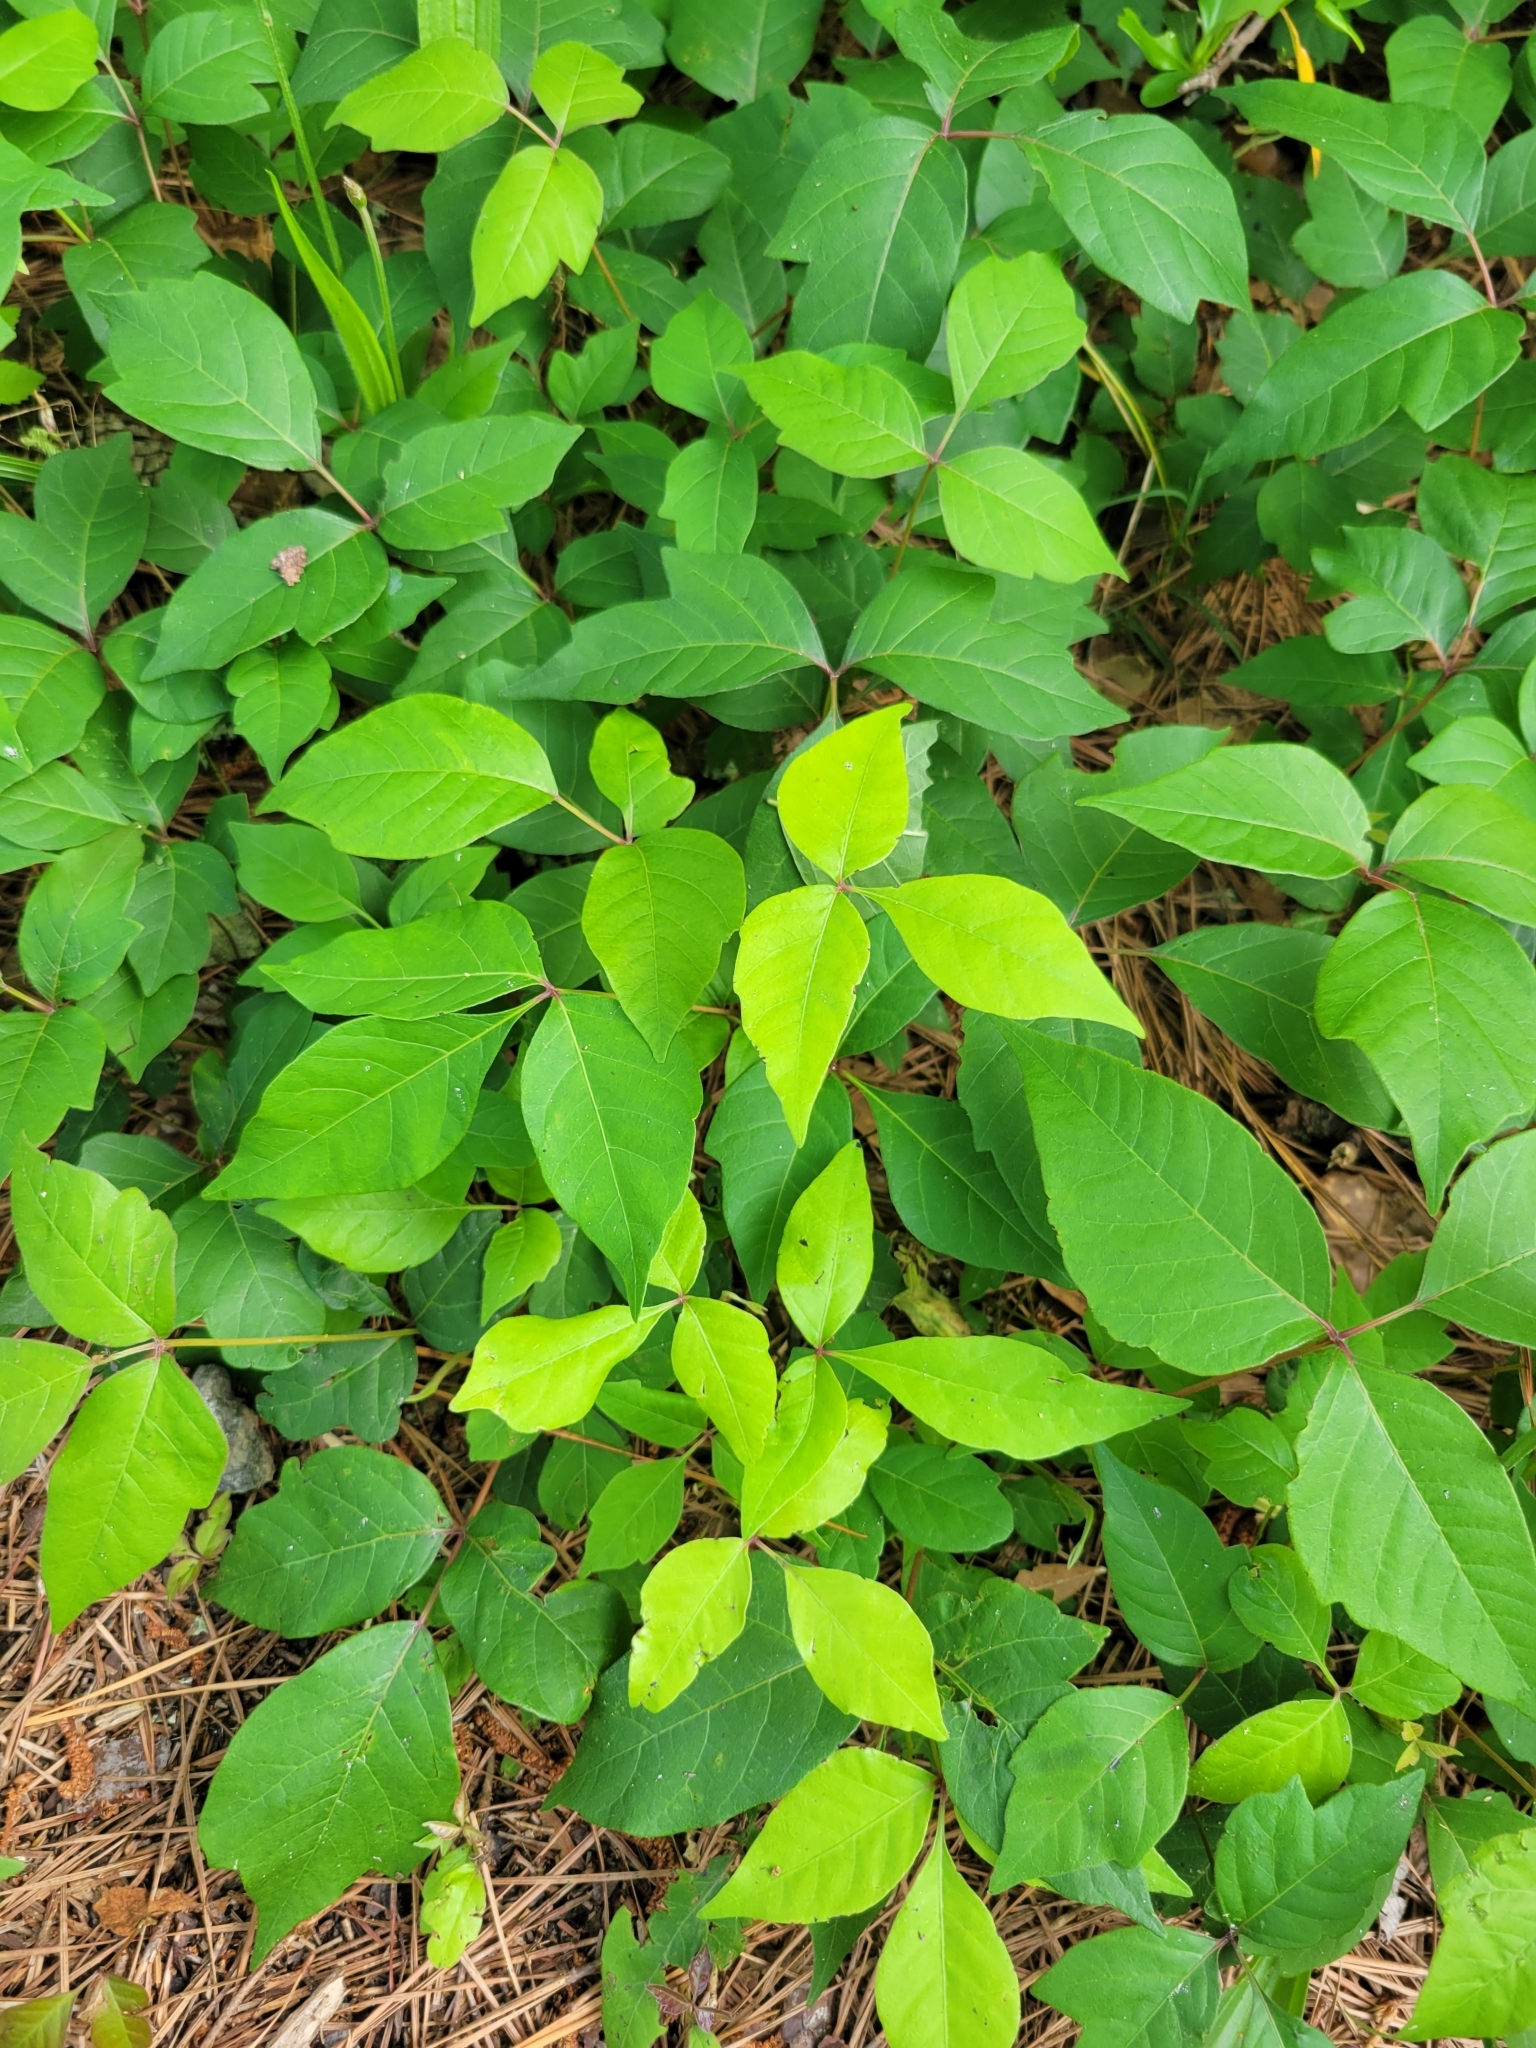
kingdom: Plantae
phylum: Tracheophyta
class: Magnoliopsida
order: Sapindales
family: Anacardiaceae
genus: Toxicodendron
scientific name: Toxicodendron radicans
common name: Poison ivy
